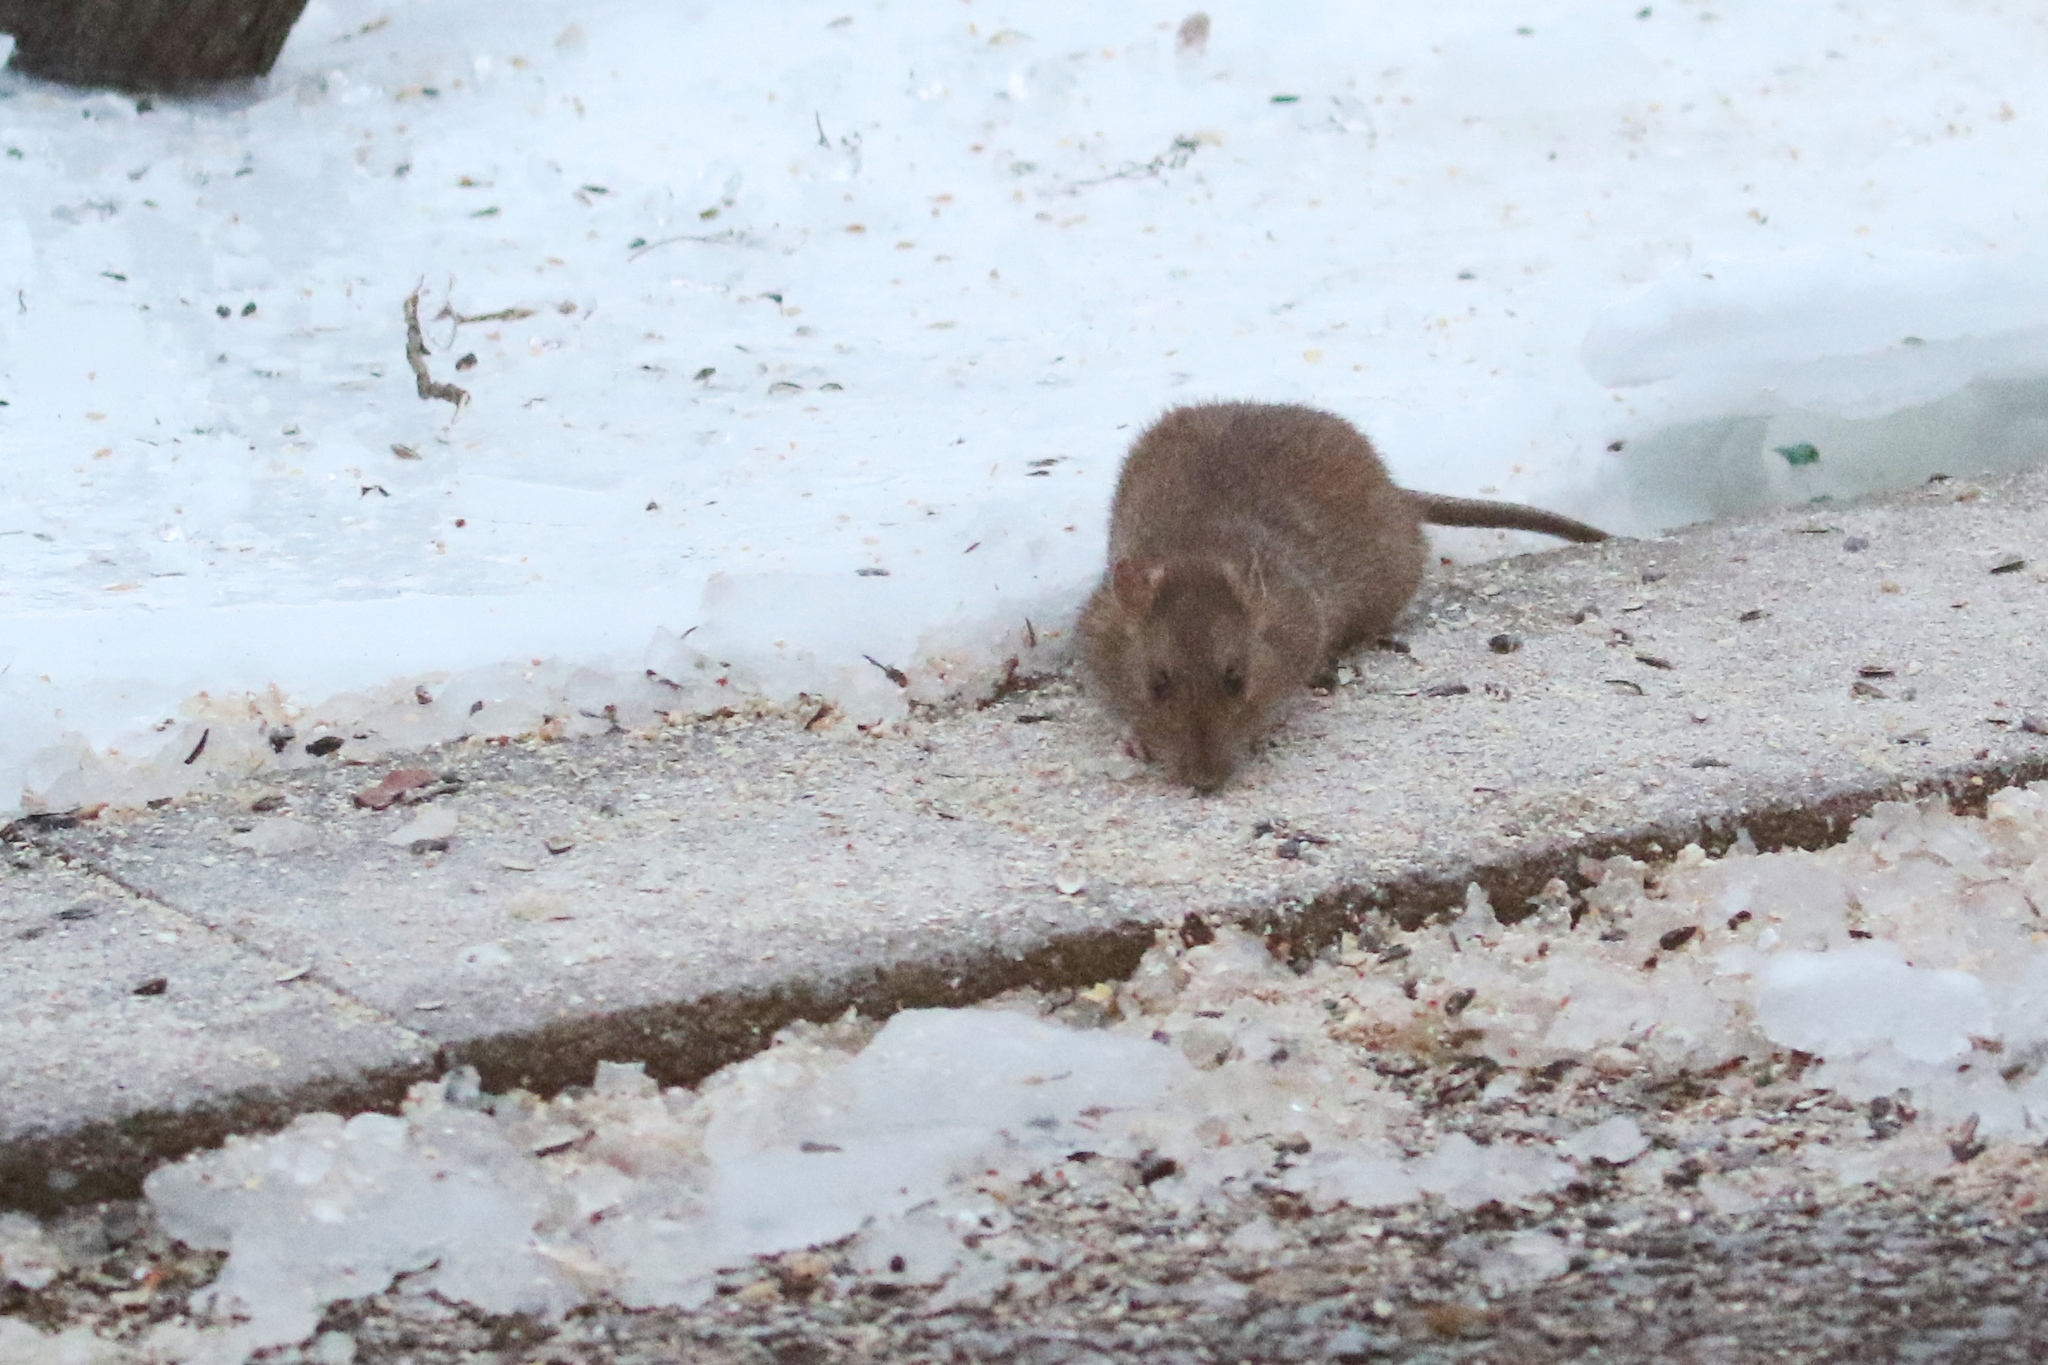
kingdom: Animalia
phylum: Chordata
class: Mammalia
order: Rodentia
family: Muridae
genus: Rattus
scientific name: Rattus norvegicus
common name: Brown rat
